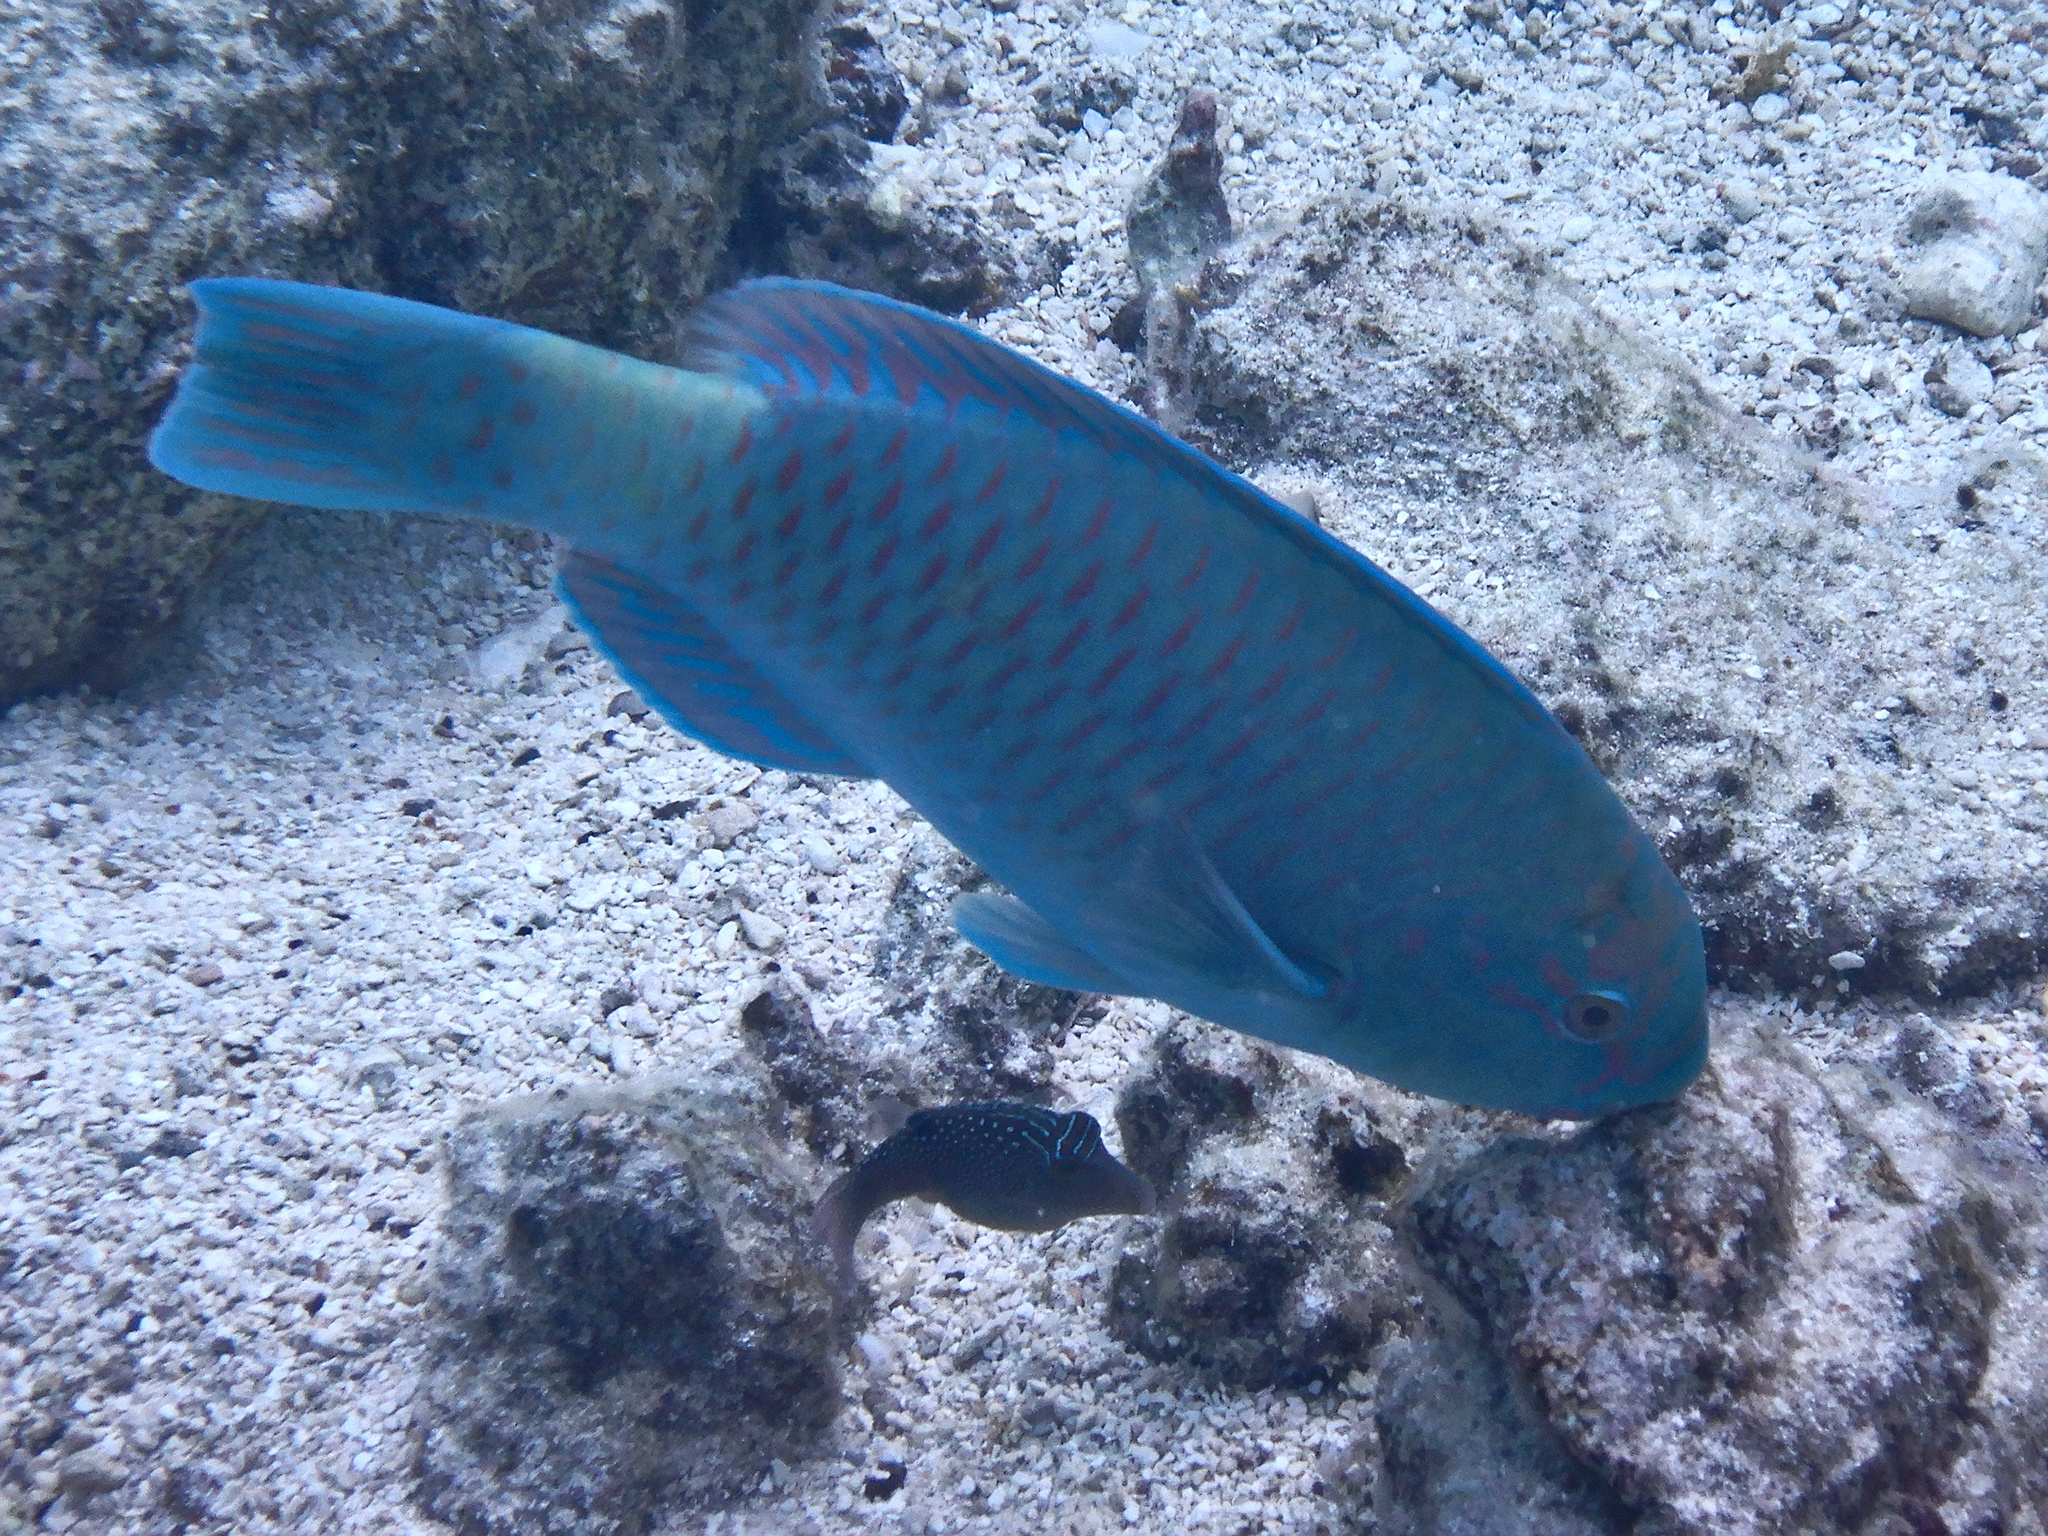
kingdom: Animalia
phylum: Chordata
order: Perciformes
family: Scaridae
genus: Chlorurus
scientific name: Chlorurus frontalis
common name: Reefcrest parrotfish
